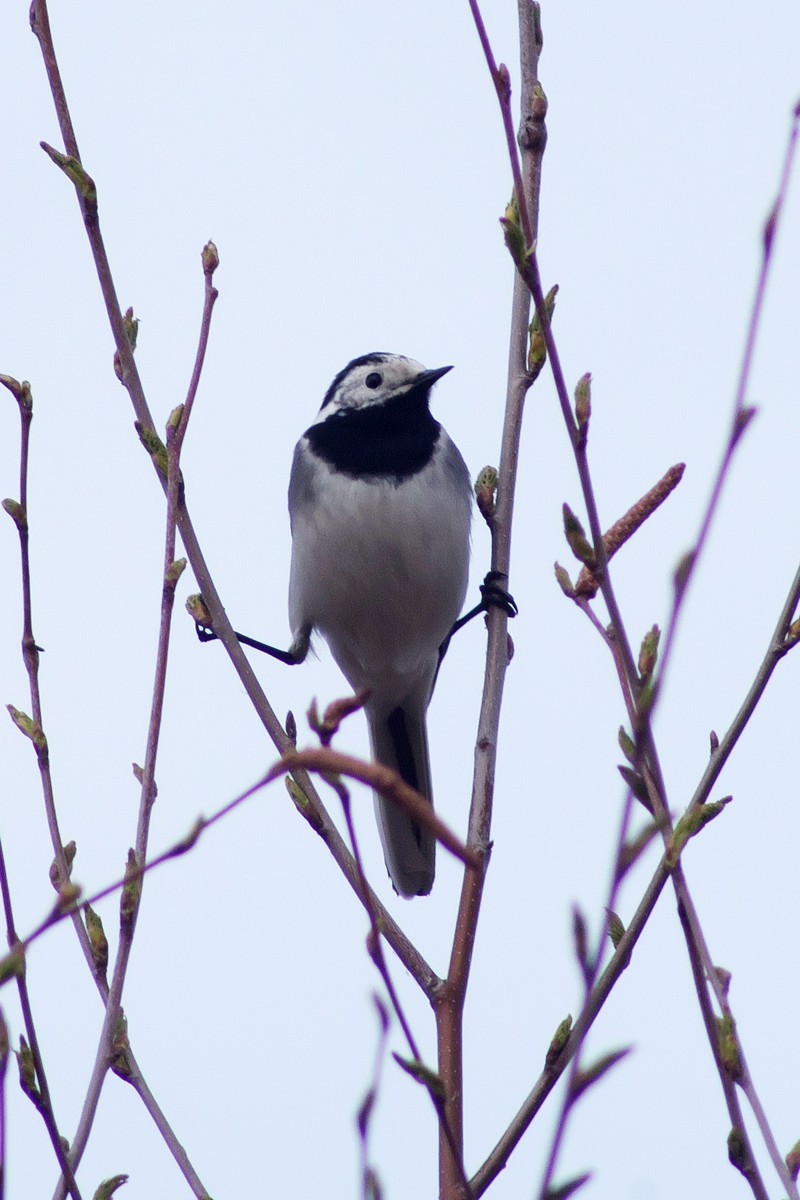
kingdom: Animalia
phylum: Chordata
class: Aves
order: Passeriformes
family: Motacillidae
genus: Motacilla
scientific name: Motacilla alba
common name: White wagtail
